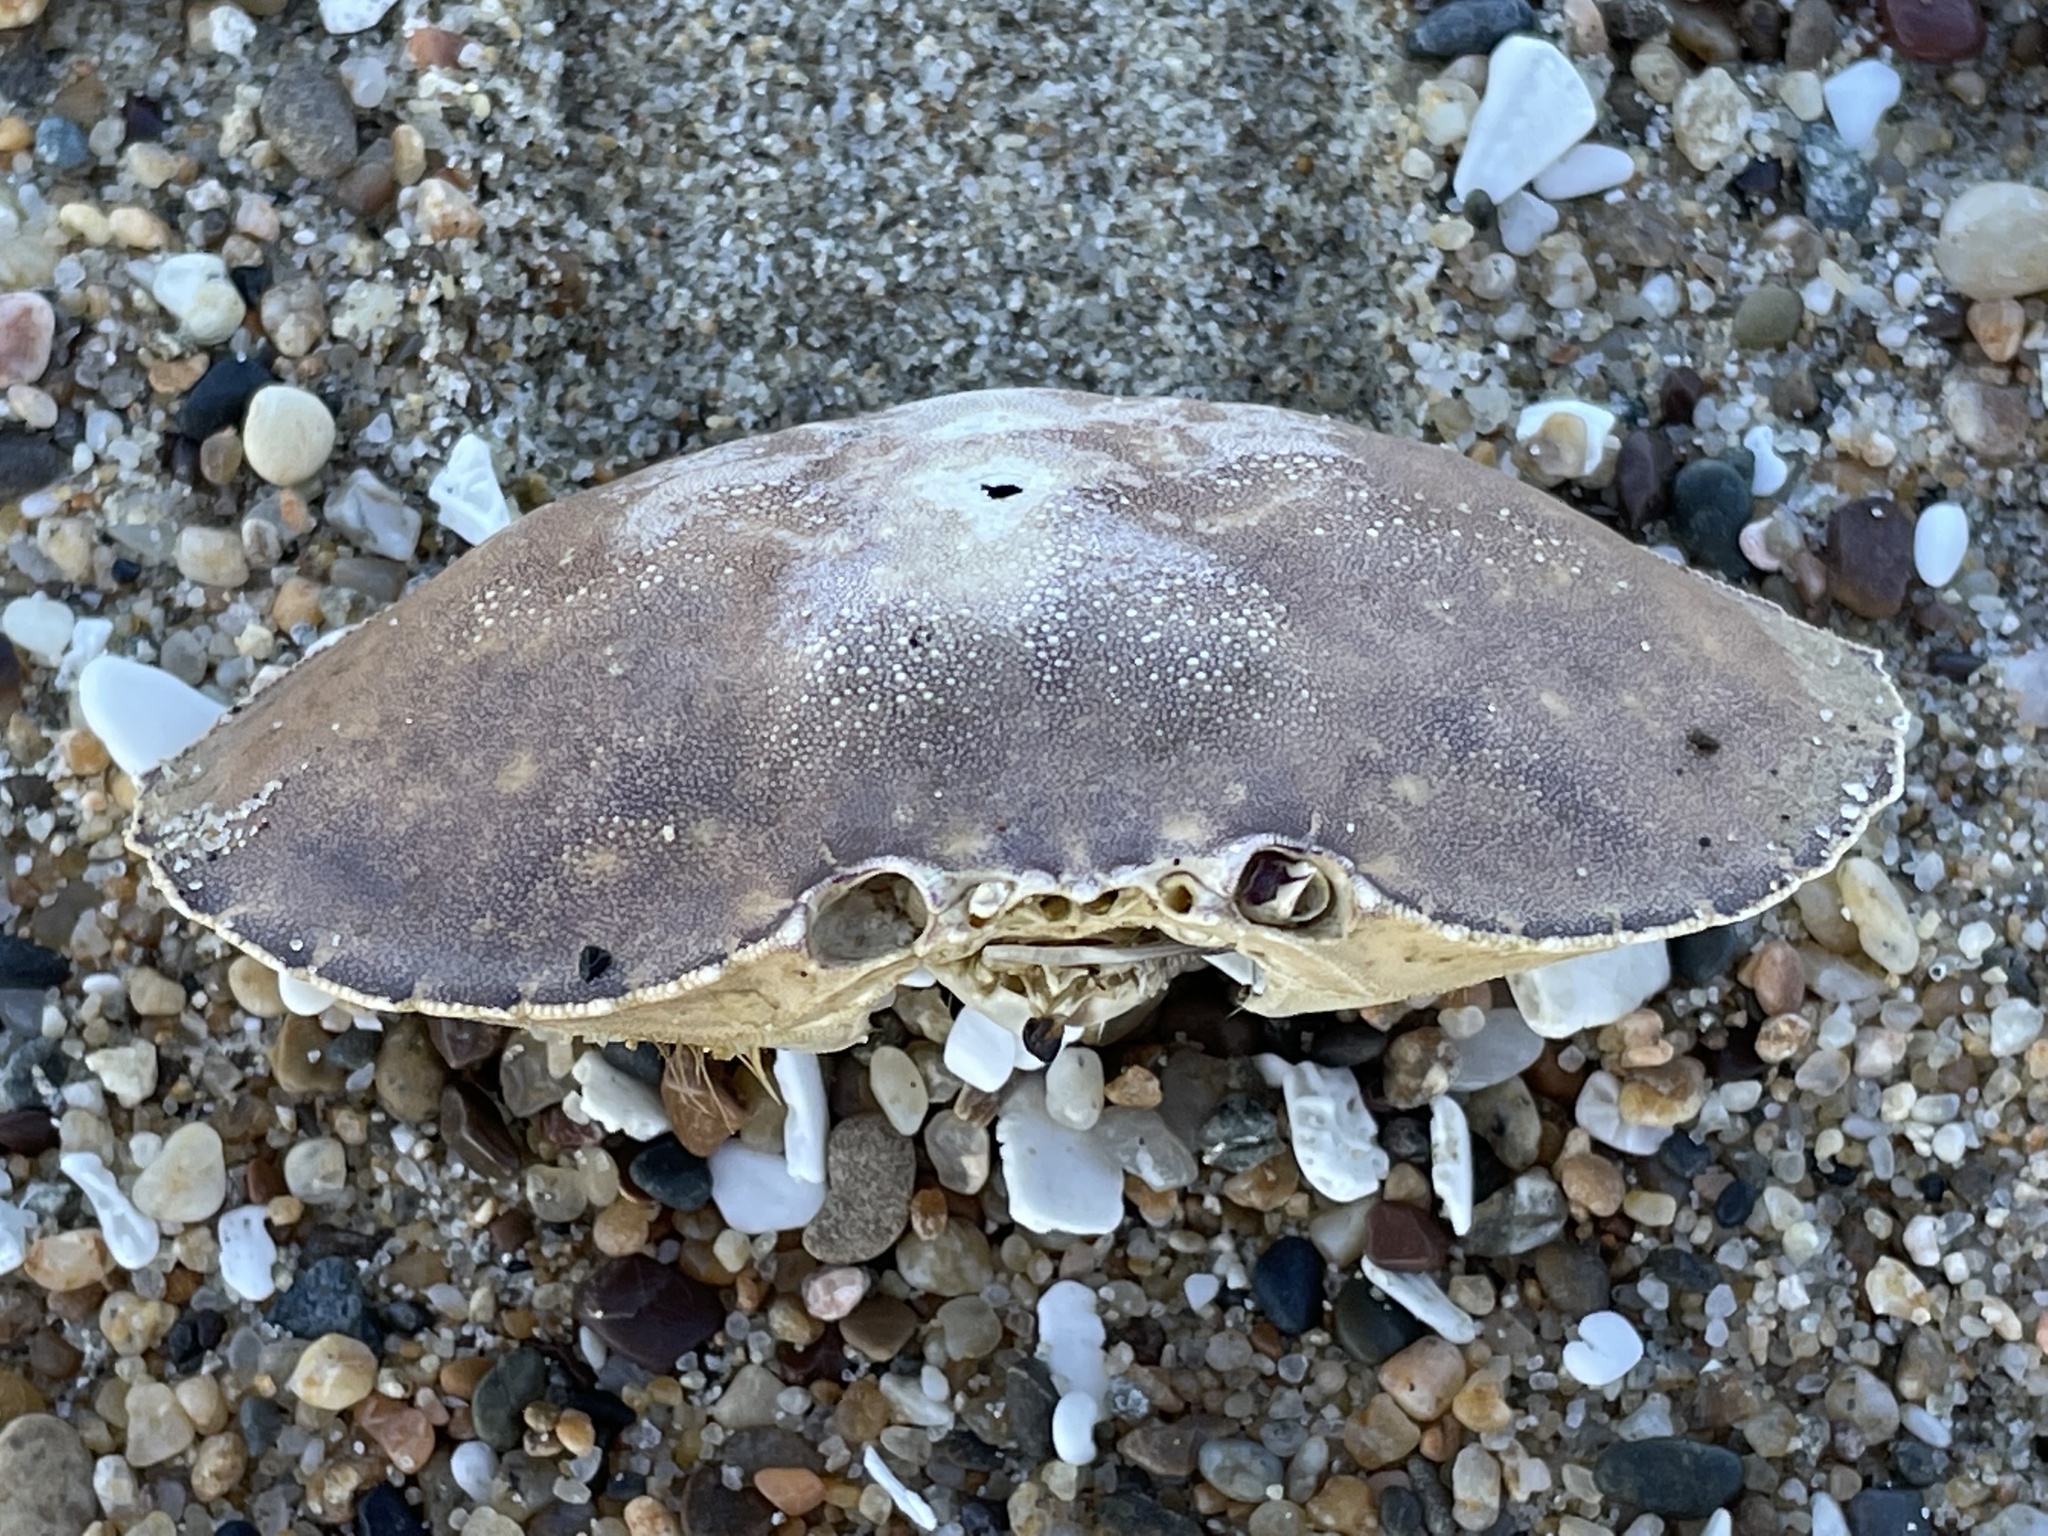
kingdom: Animalia
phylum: Arthropoda
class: Malacostraca
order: Decapoda
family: Cancridae
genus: Metacarcinus
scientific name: Metacarcinus gracilis
